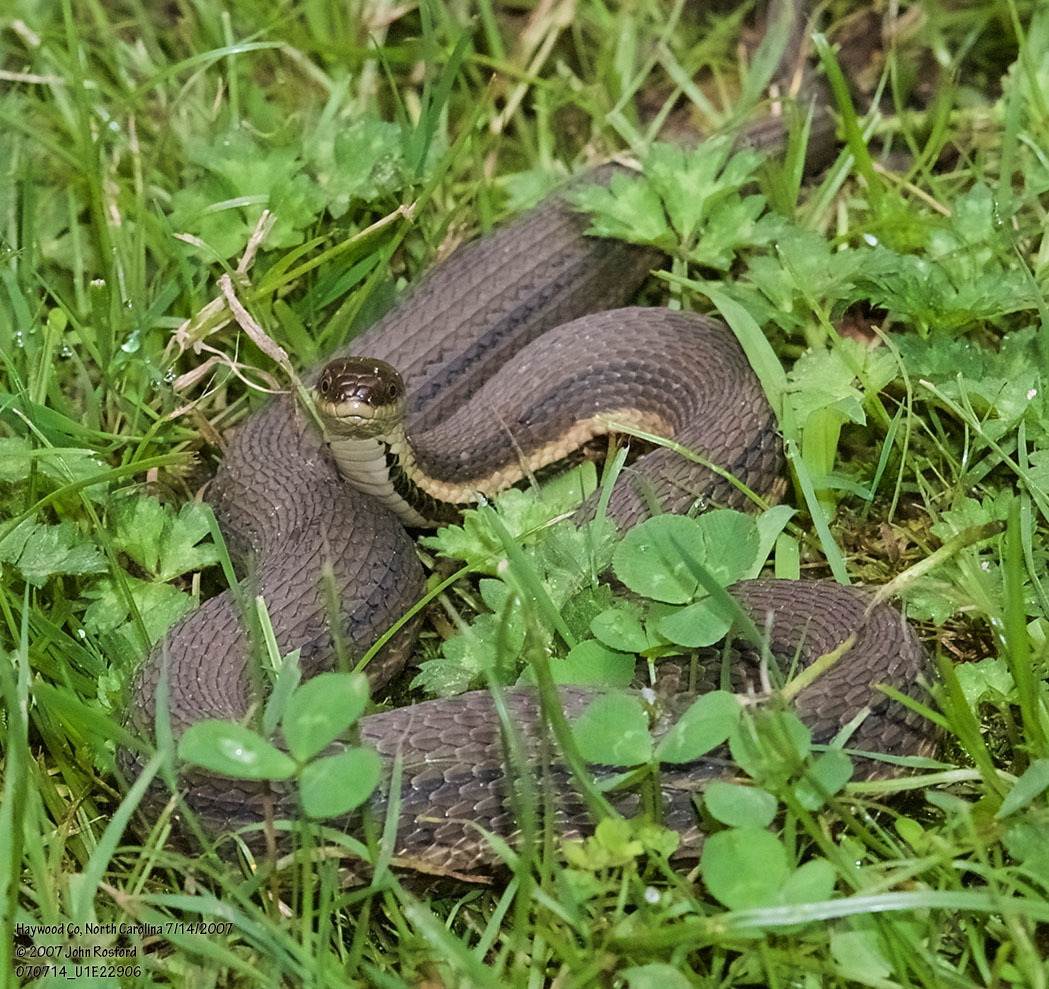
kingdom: Animalia
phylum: Chordata
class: Squamata
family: Colubridae
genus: Regina
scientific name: Regina septemvittata
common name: Queen snake
